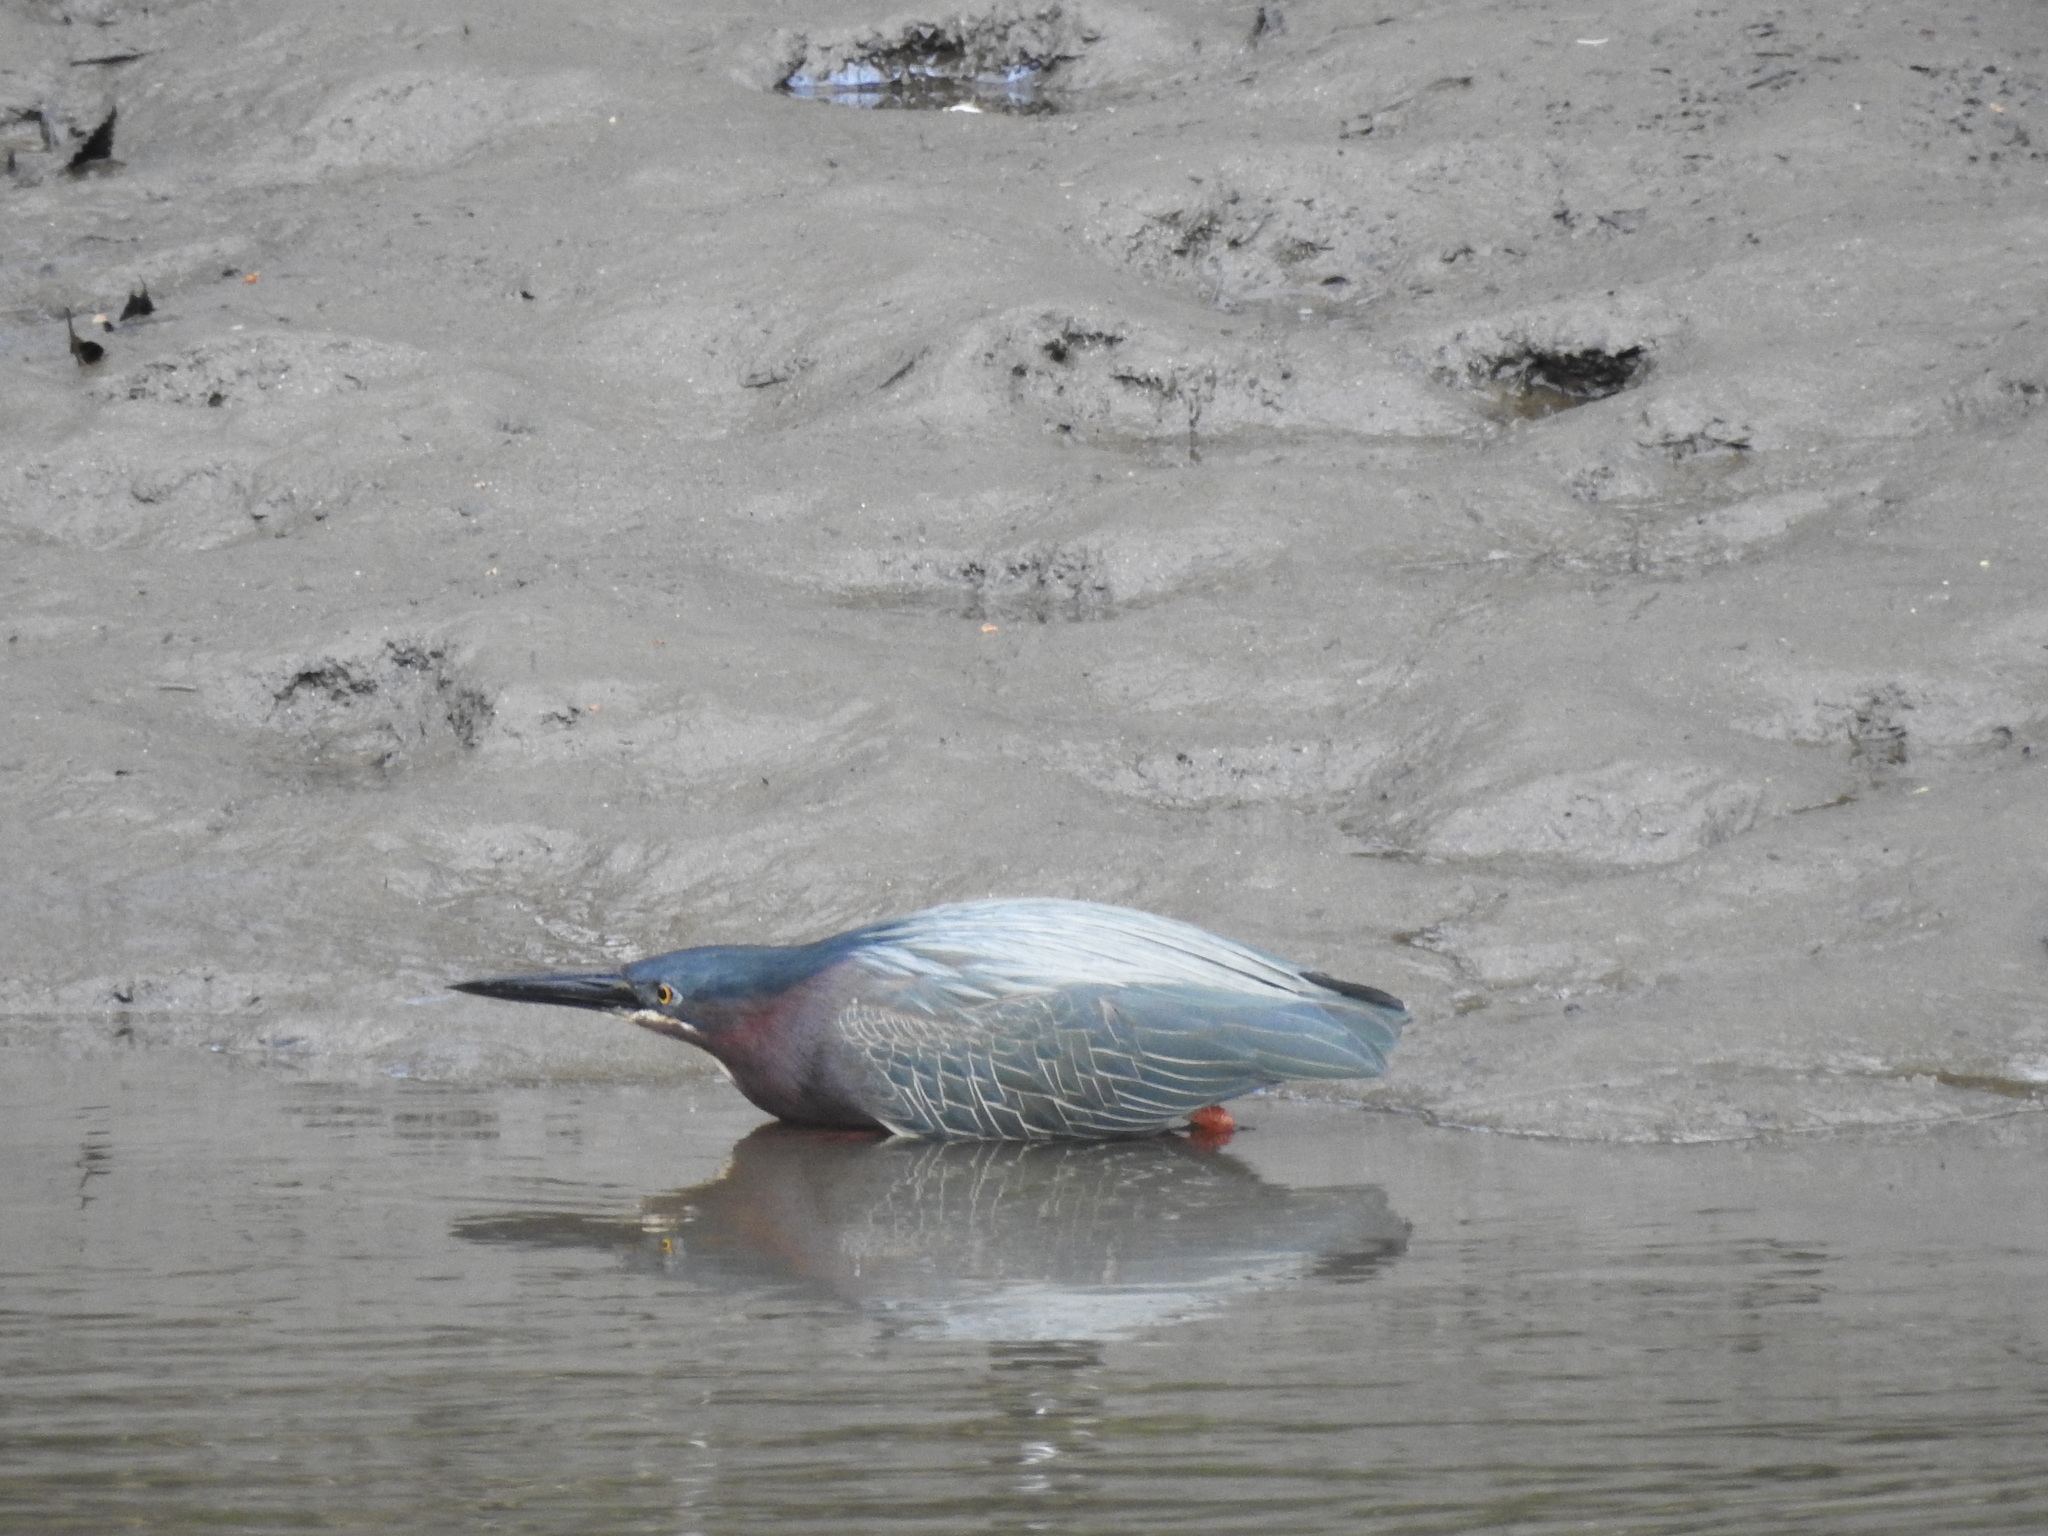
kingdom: Animalia
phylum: Chordata
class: Aves
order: Pelecaniformes
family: Ardeidae
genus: Butorides
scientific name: Butorides virescens
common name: Green heron
